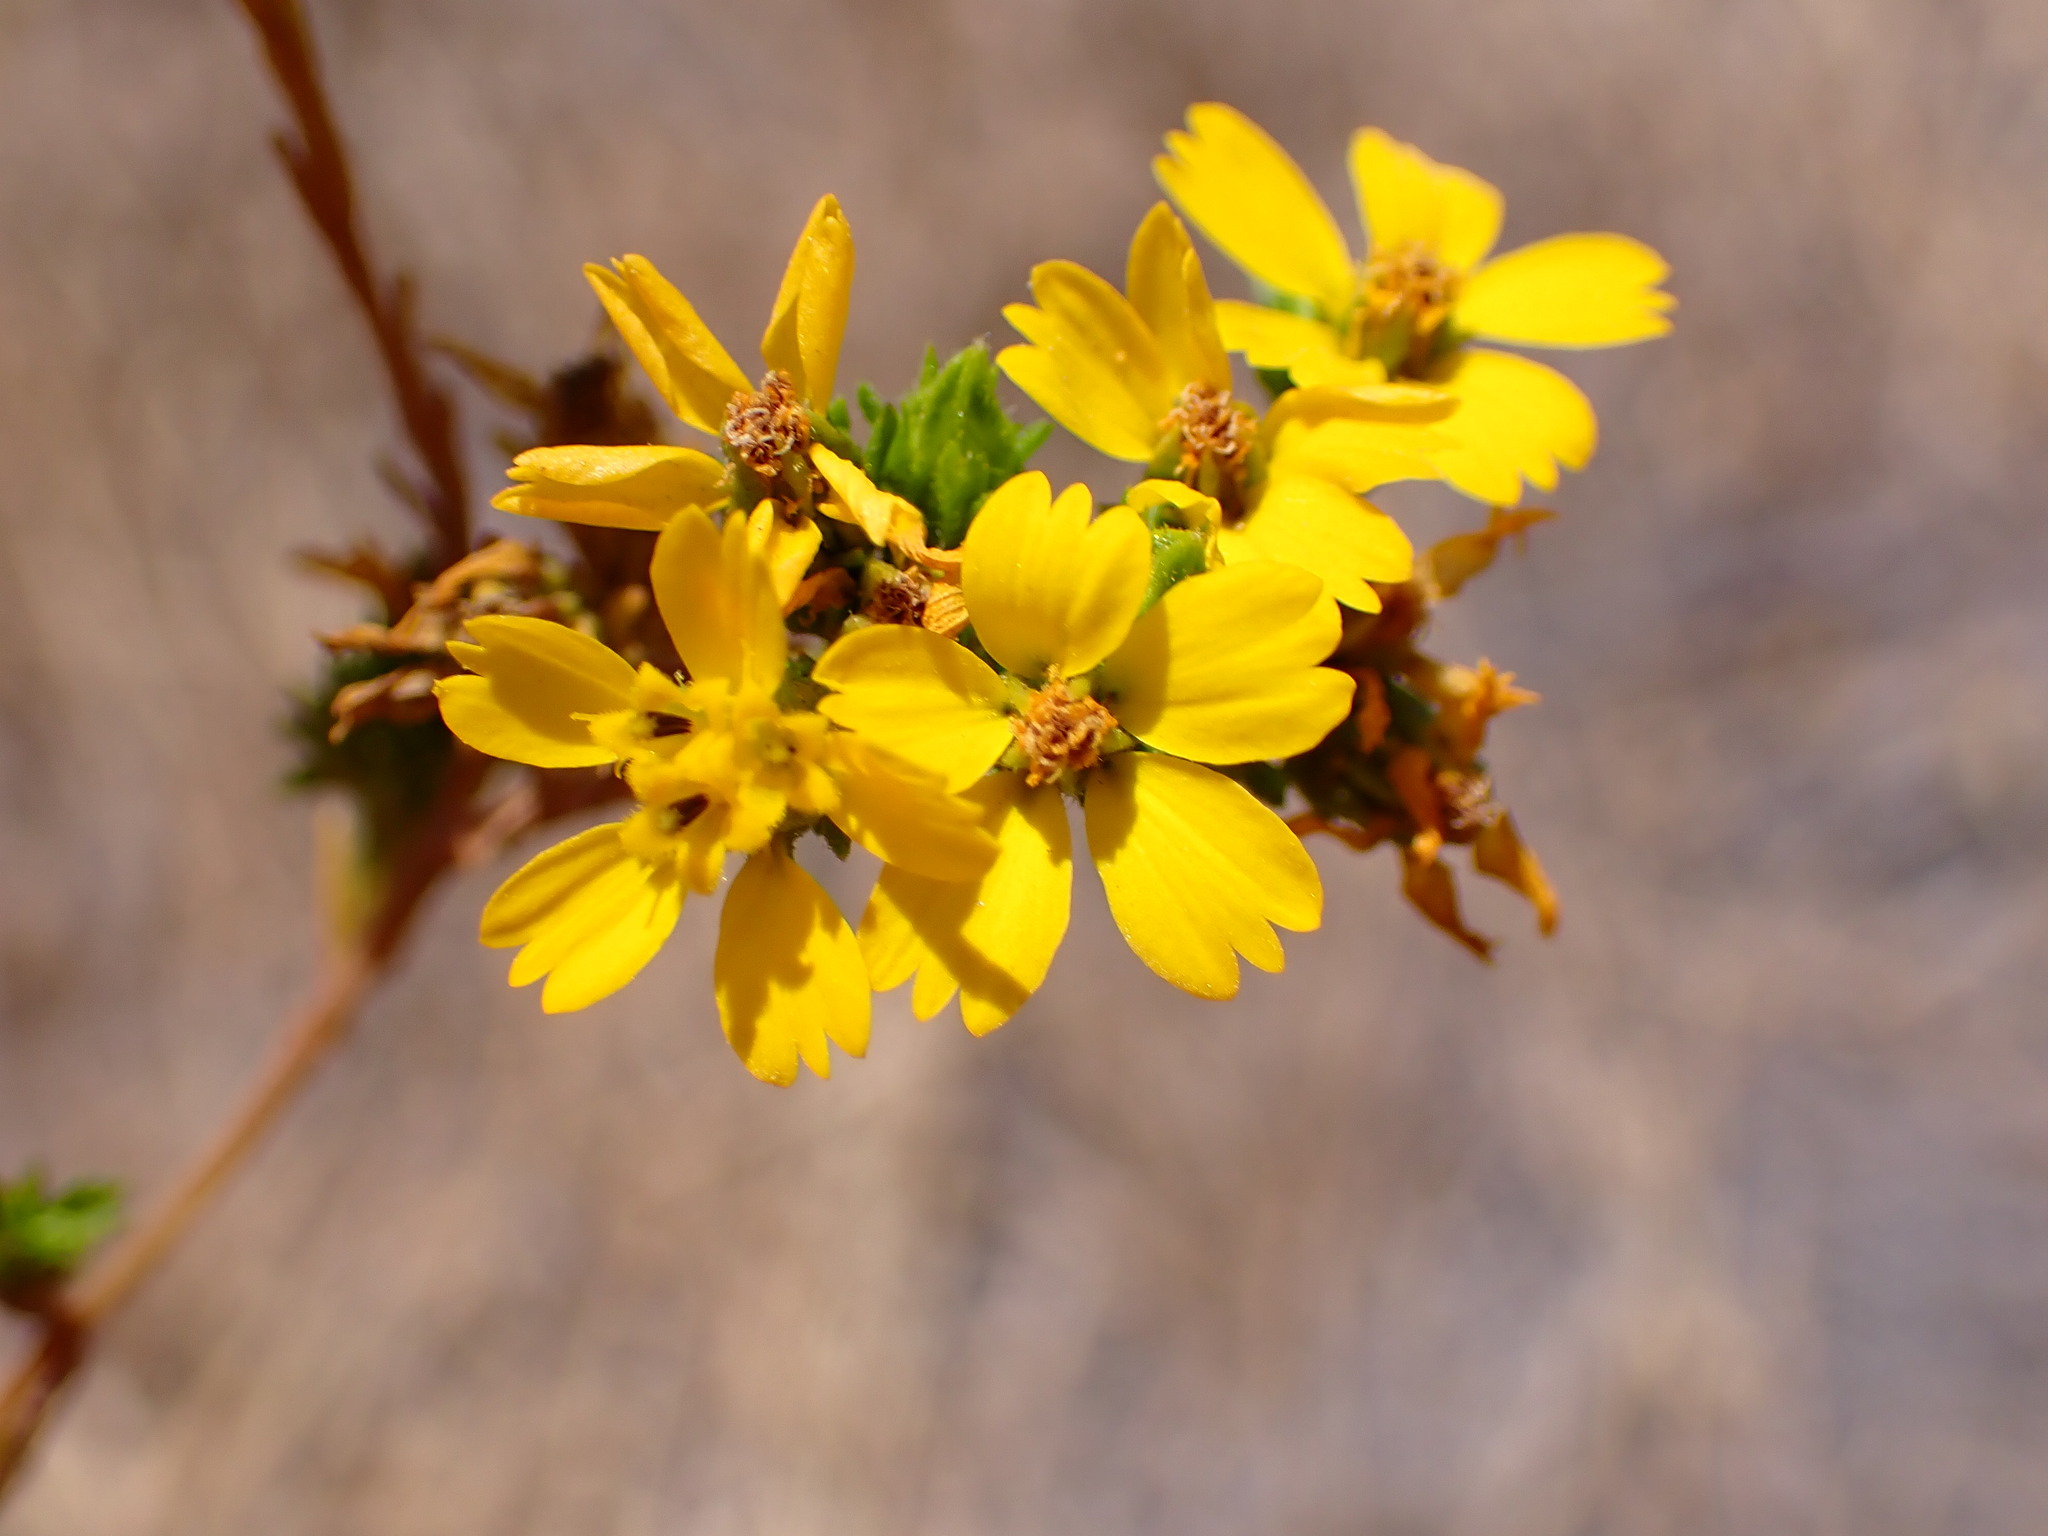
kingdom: Plantae
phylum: Tracheophyta
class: Magnoliopsida
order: Asterales
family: Asteraceae
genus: Deinandra
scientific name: Deinandra fasciculata
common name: Clustered tarweed
